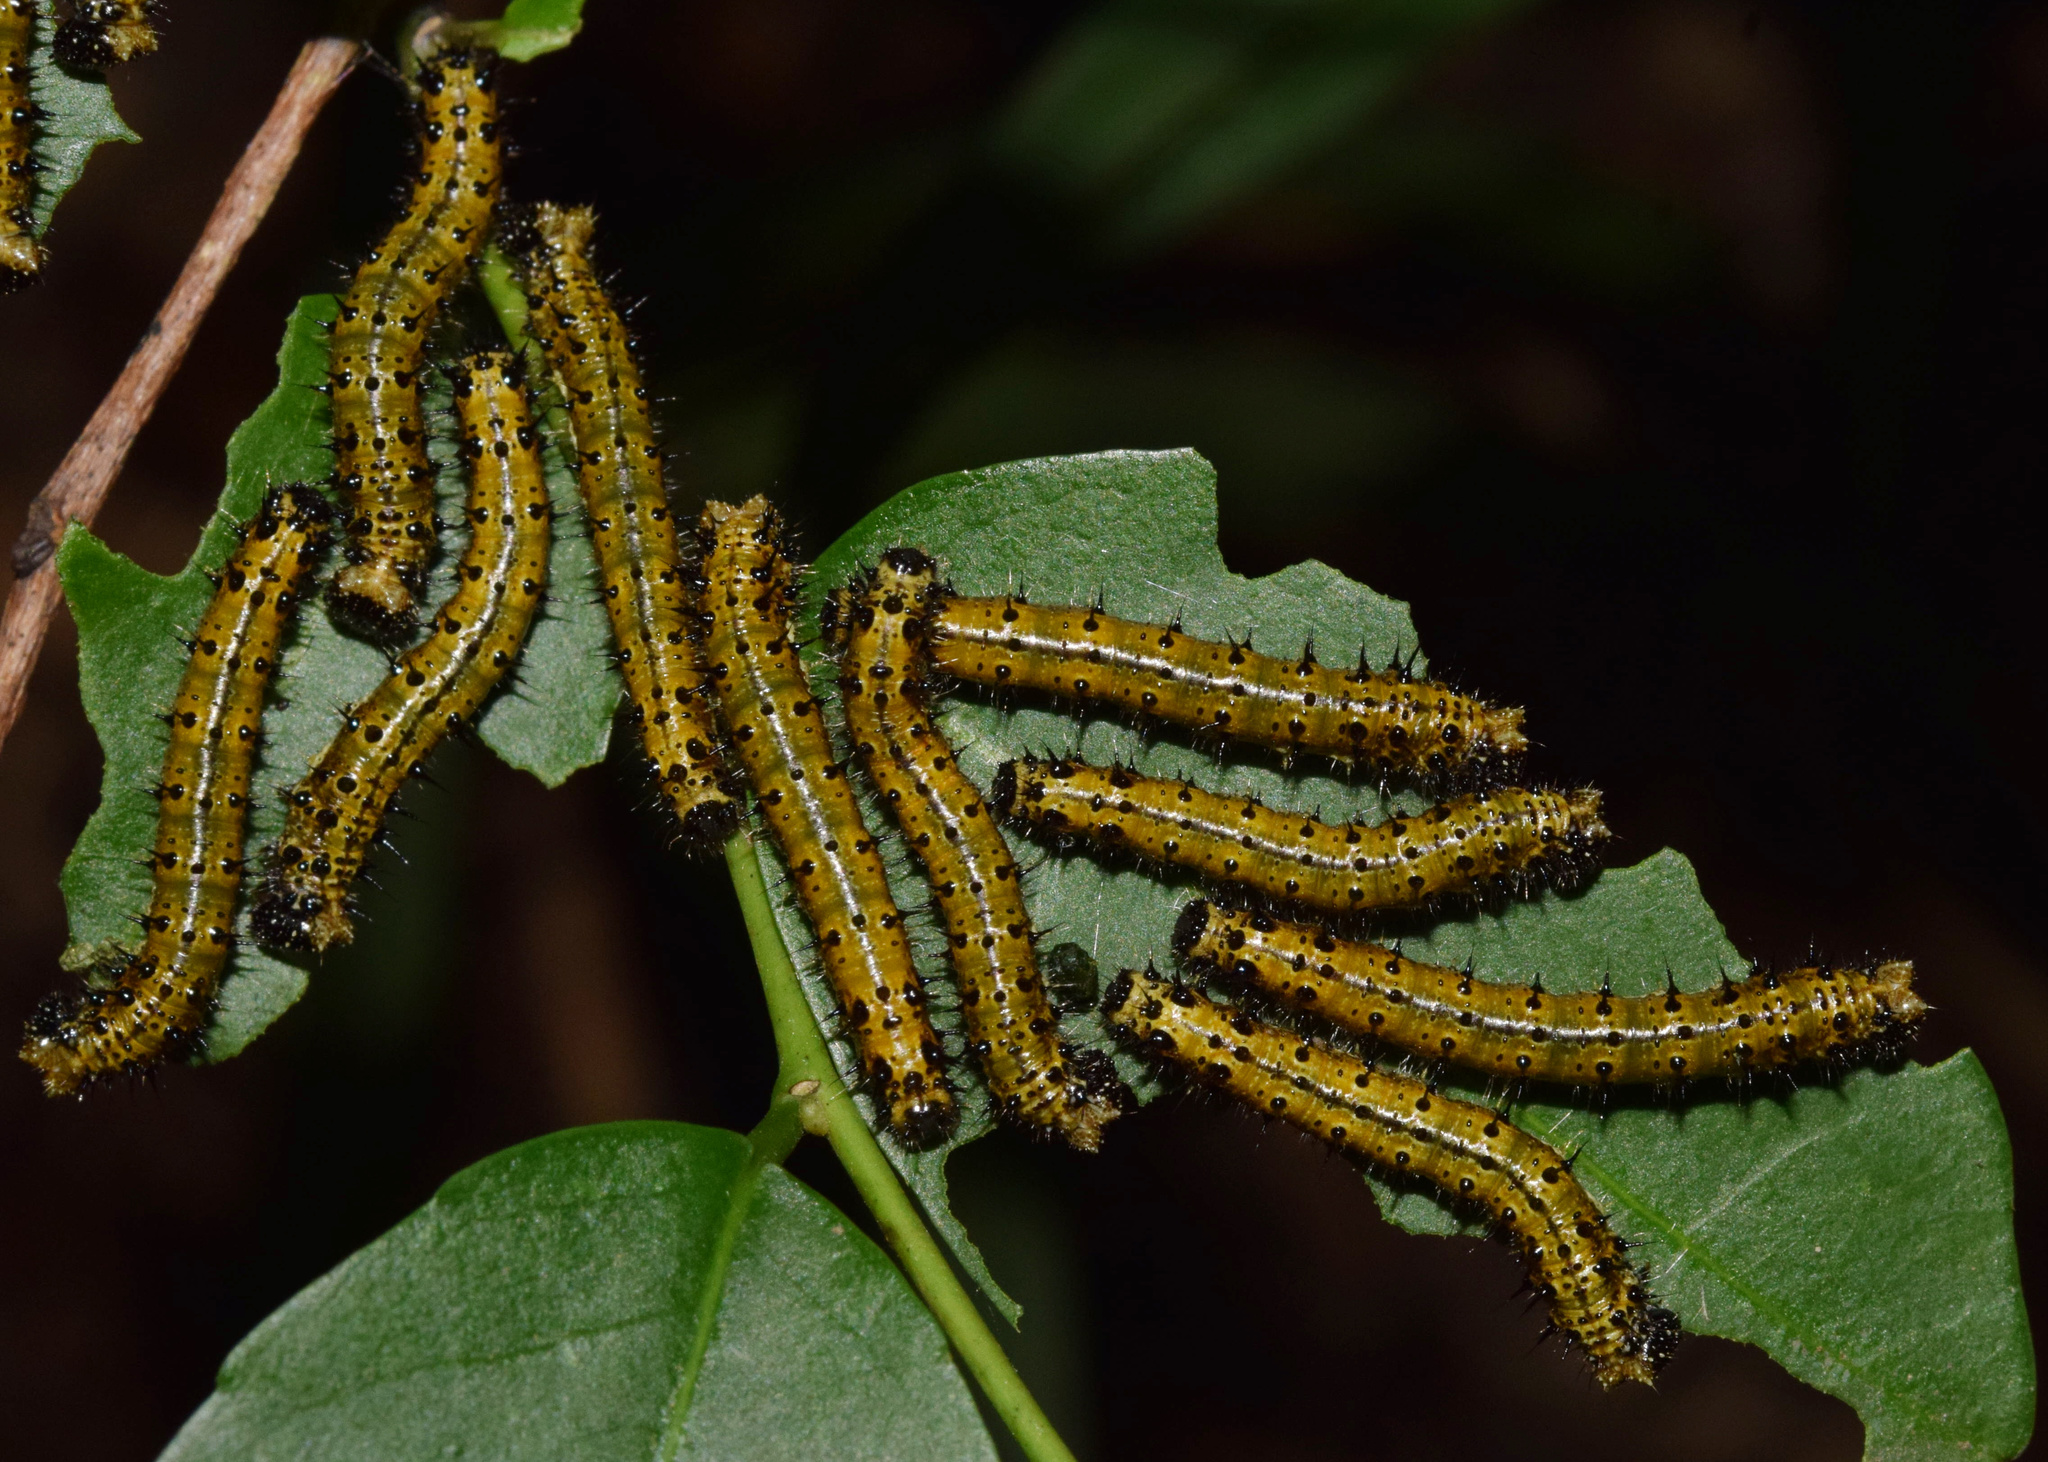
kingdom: Animalia
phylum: Arthropoda
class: Insecta
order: Lepidoptera
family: Nymphalidae
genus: Asterope
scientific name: Asterope boisduvali
